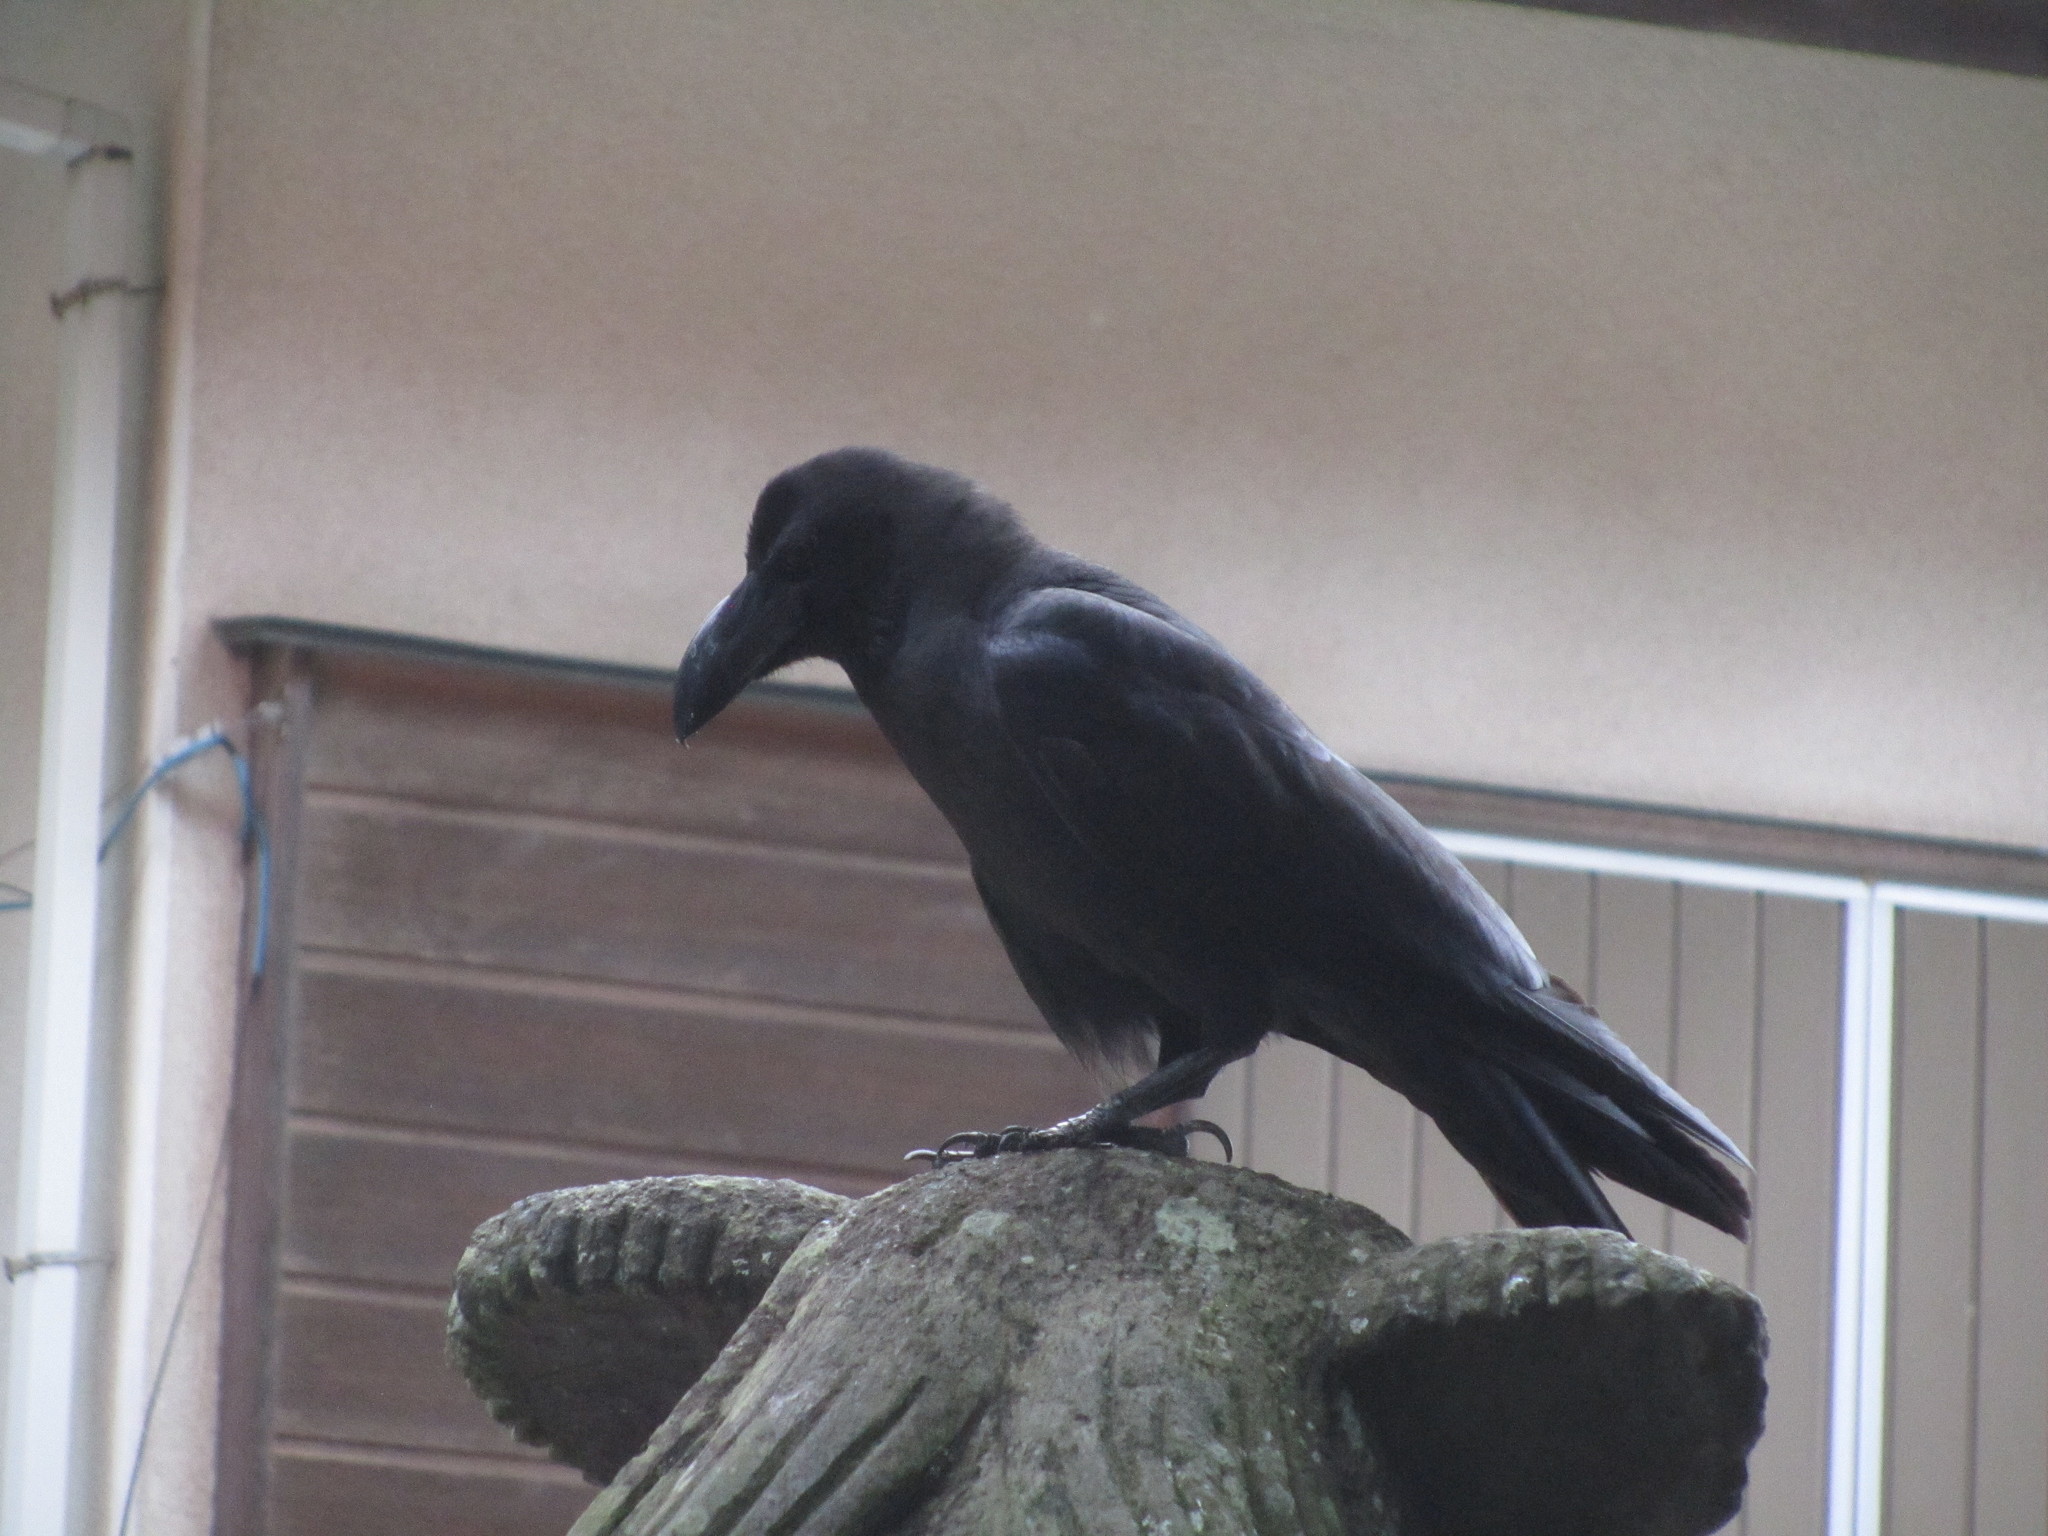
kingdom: Animalia
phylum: Chordata
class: Aves
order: Passeriformes
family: Corvidae
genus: Corvus
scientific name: Corvus macrorhynchos
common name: Large-billed crow
